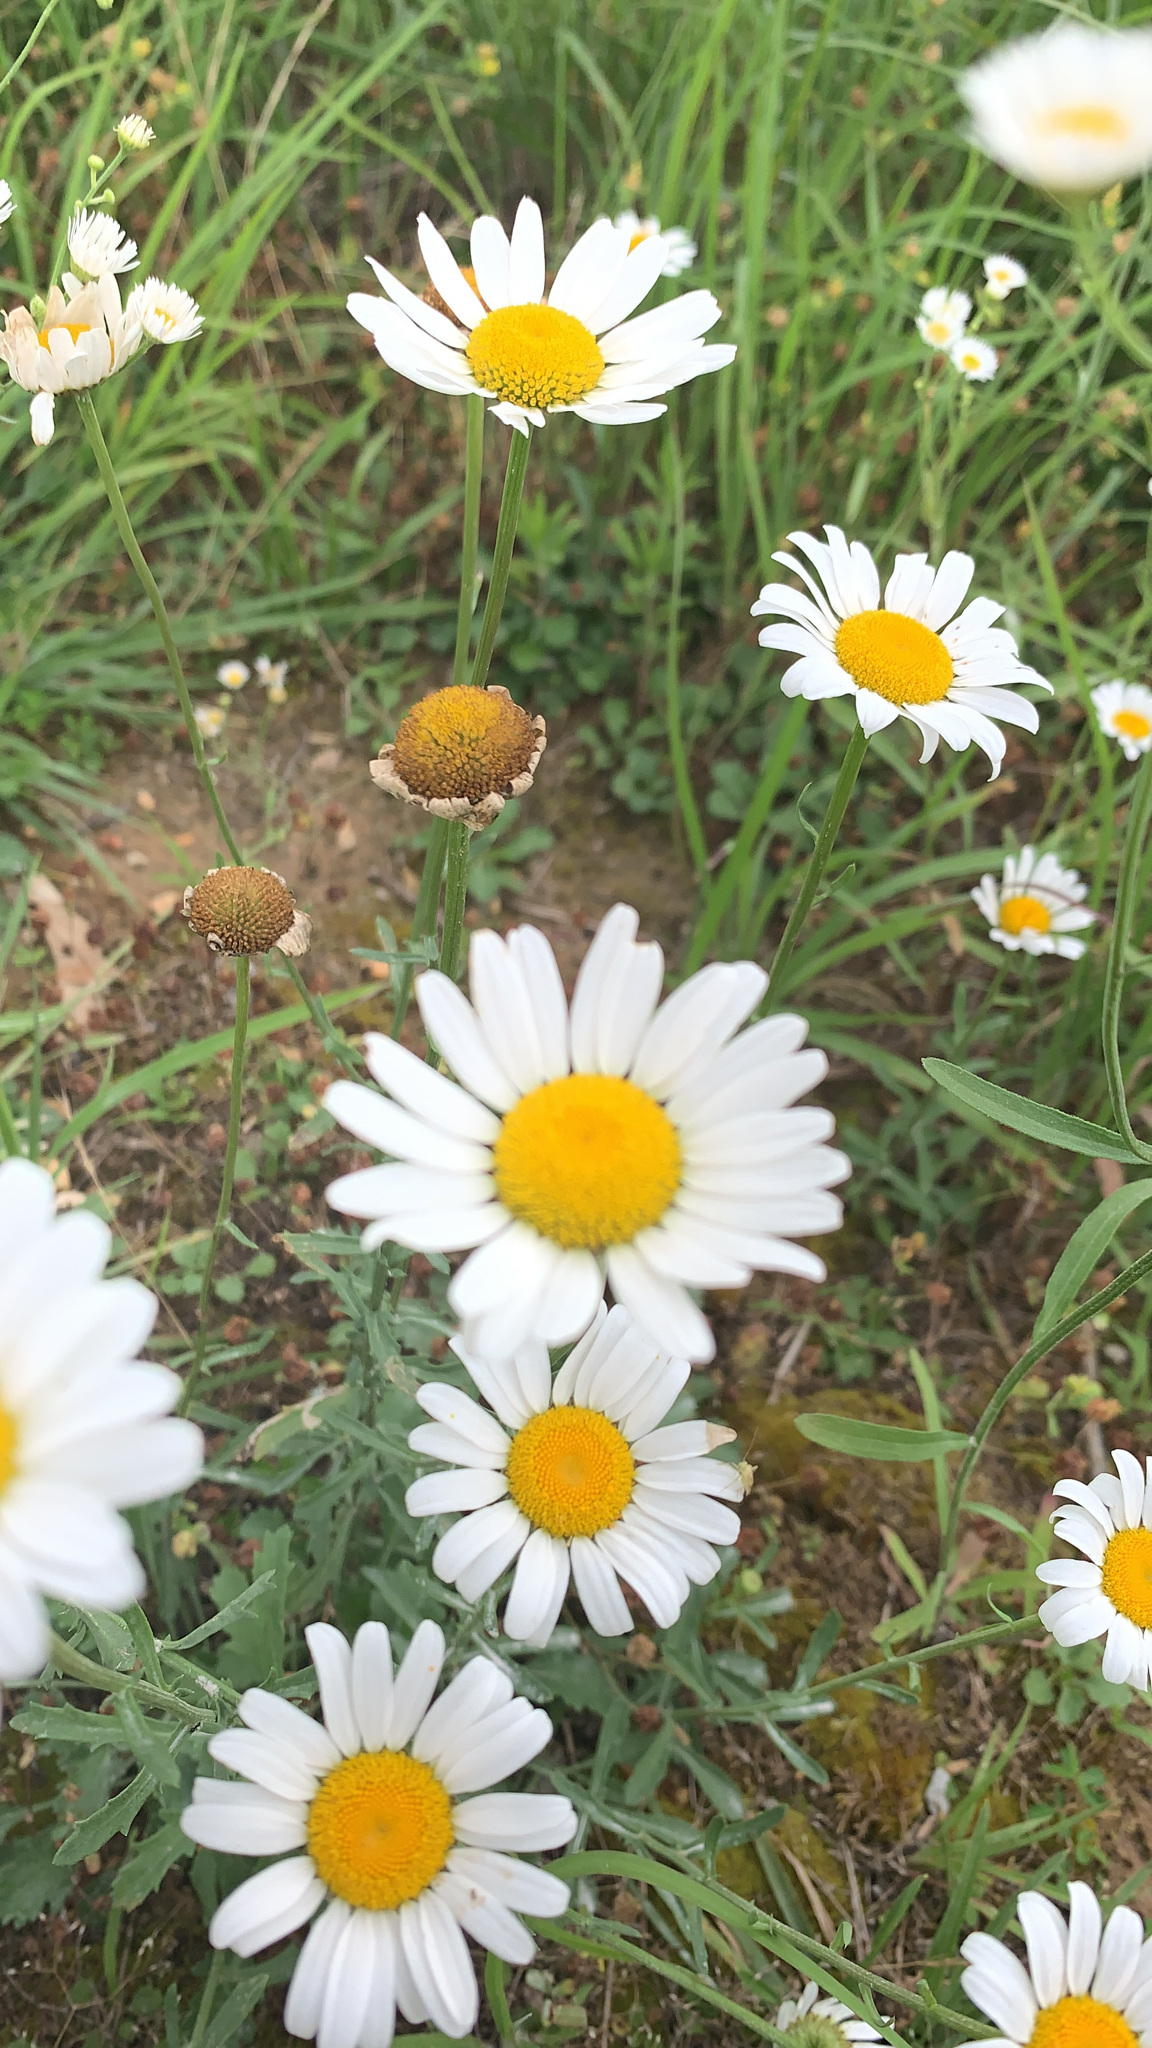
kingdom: Plantae
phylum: Tracheophyta
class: Magnoliopsida
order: Asterales
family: Asteraceae
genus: Leucanthemum
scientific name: Leucanthemum vulgare
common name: Oxeye daisy
